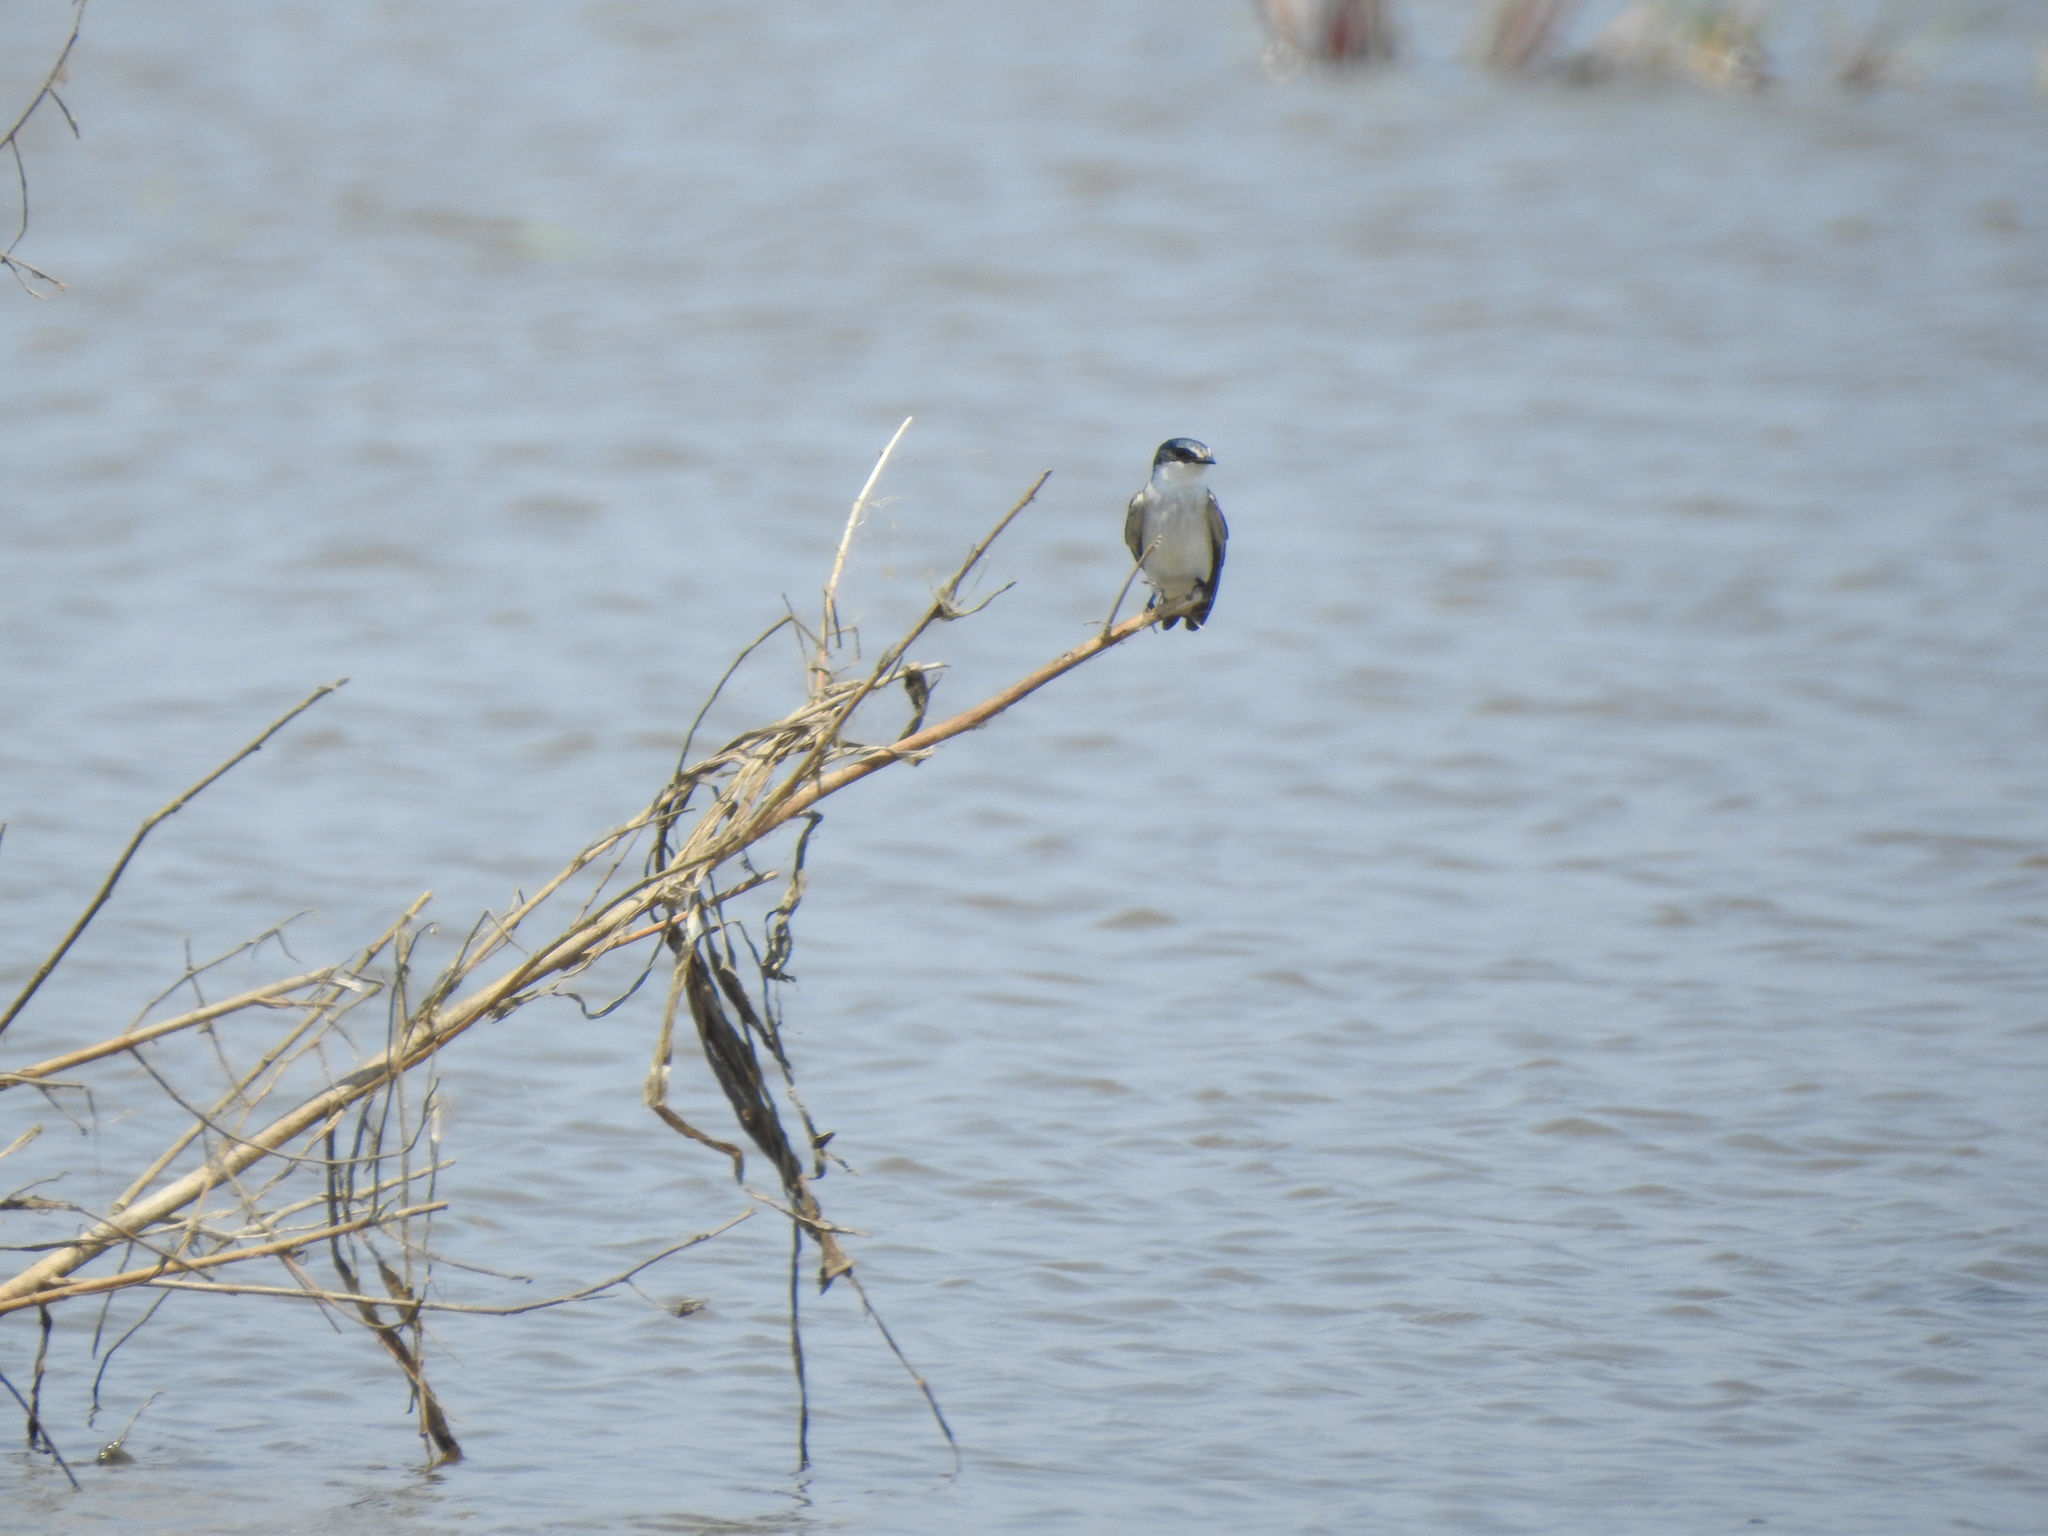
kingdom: Animalia
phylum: Chordata
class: Aves
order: Passeriformes
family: Hirundinidae
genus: Tachycineta
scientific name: Tachycineta albilinea
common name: Mangrove swallow
